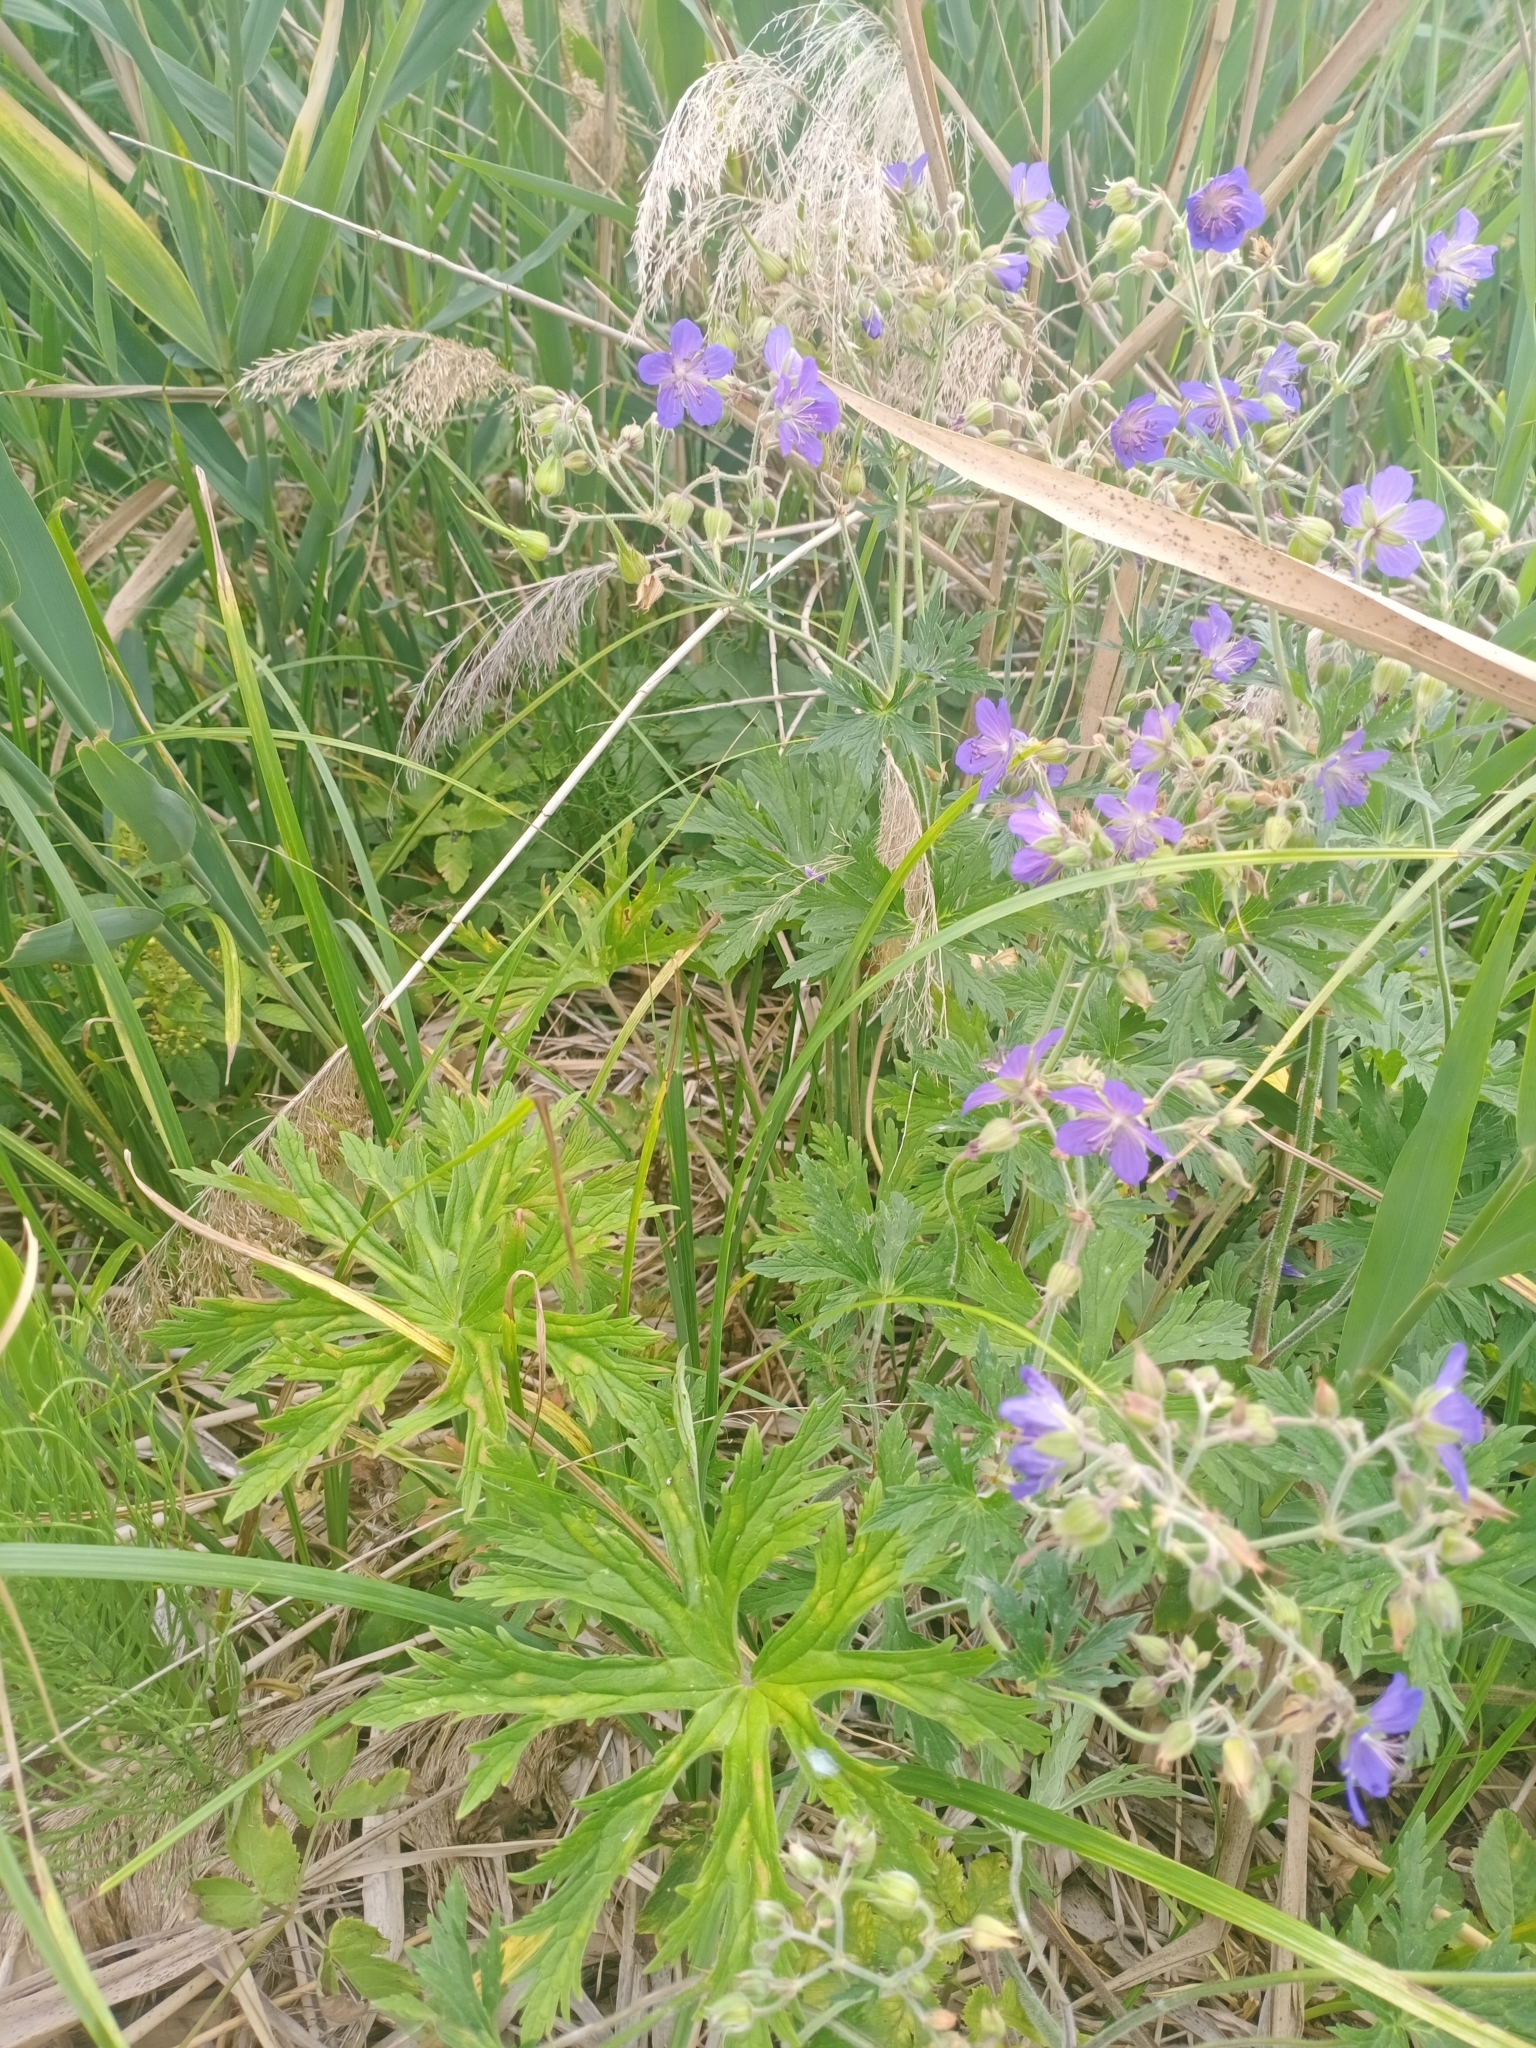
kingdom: Plantae
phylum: Tracheophyta
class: Magnoliopsida
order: Geraniales
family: Geraniaceae
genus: Geranium
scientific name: Geranium pratense
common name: Meadow crane's-bill
